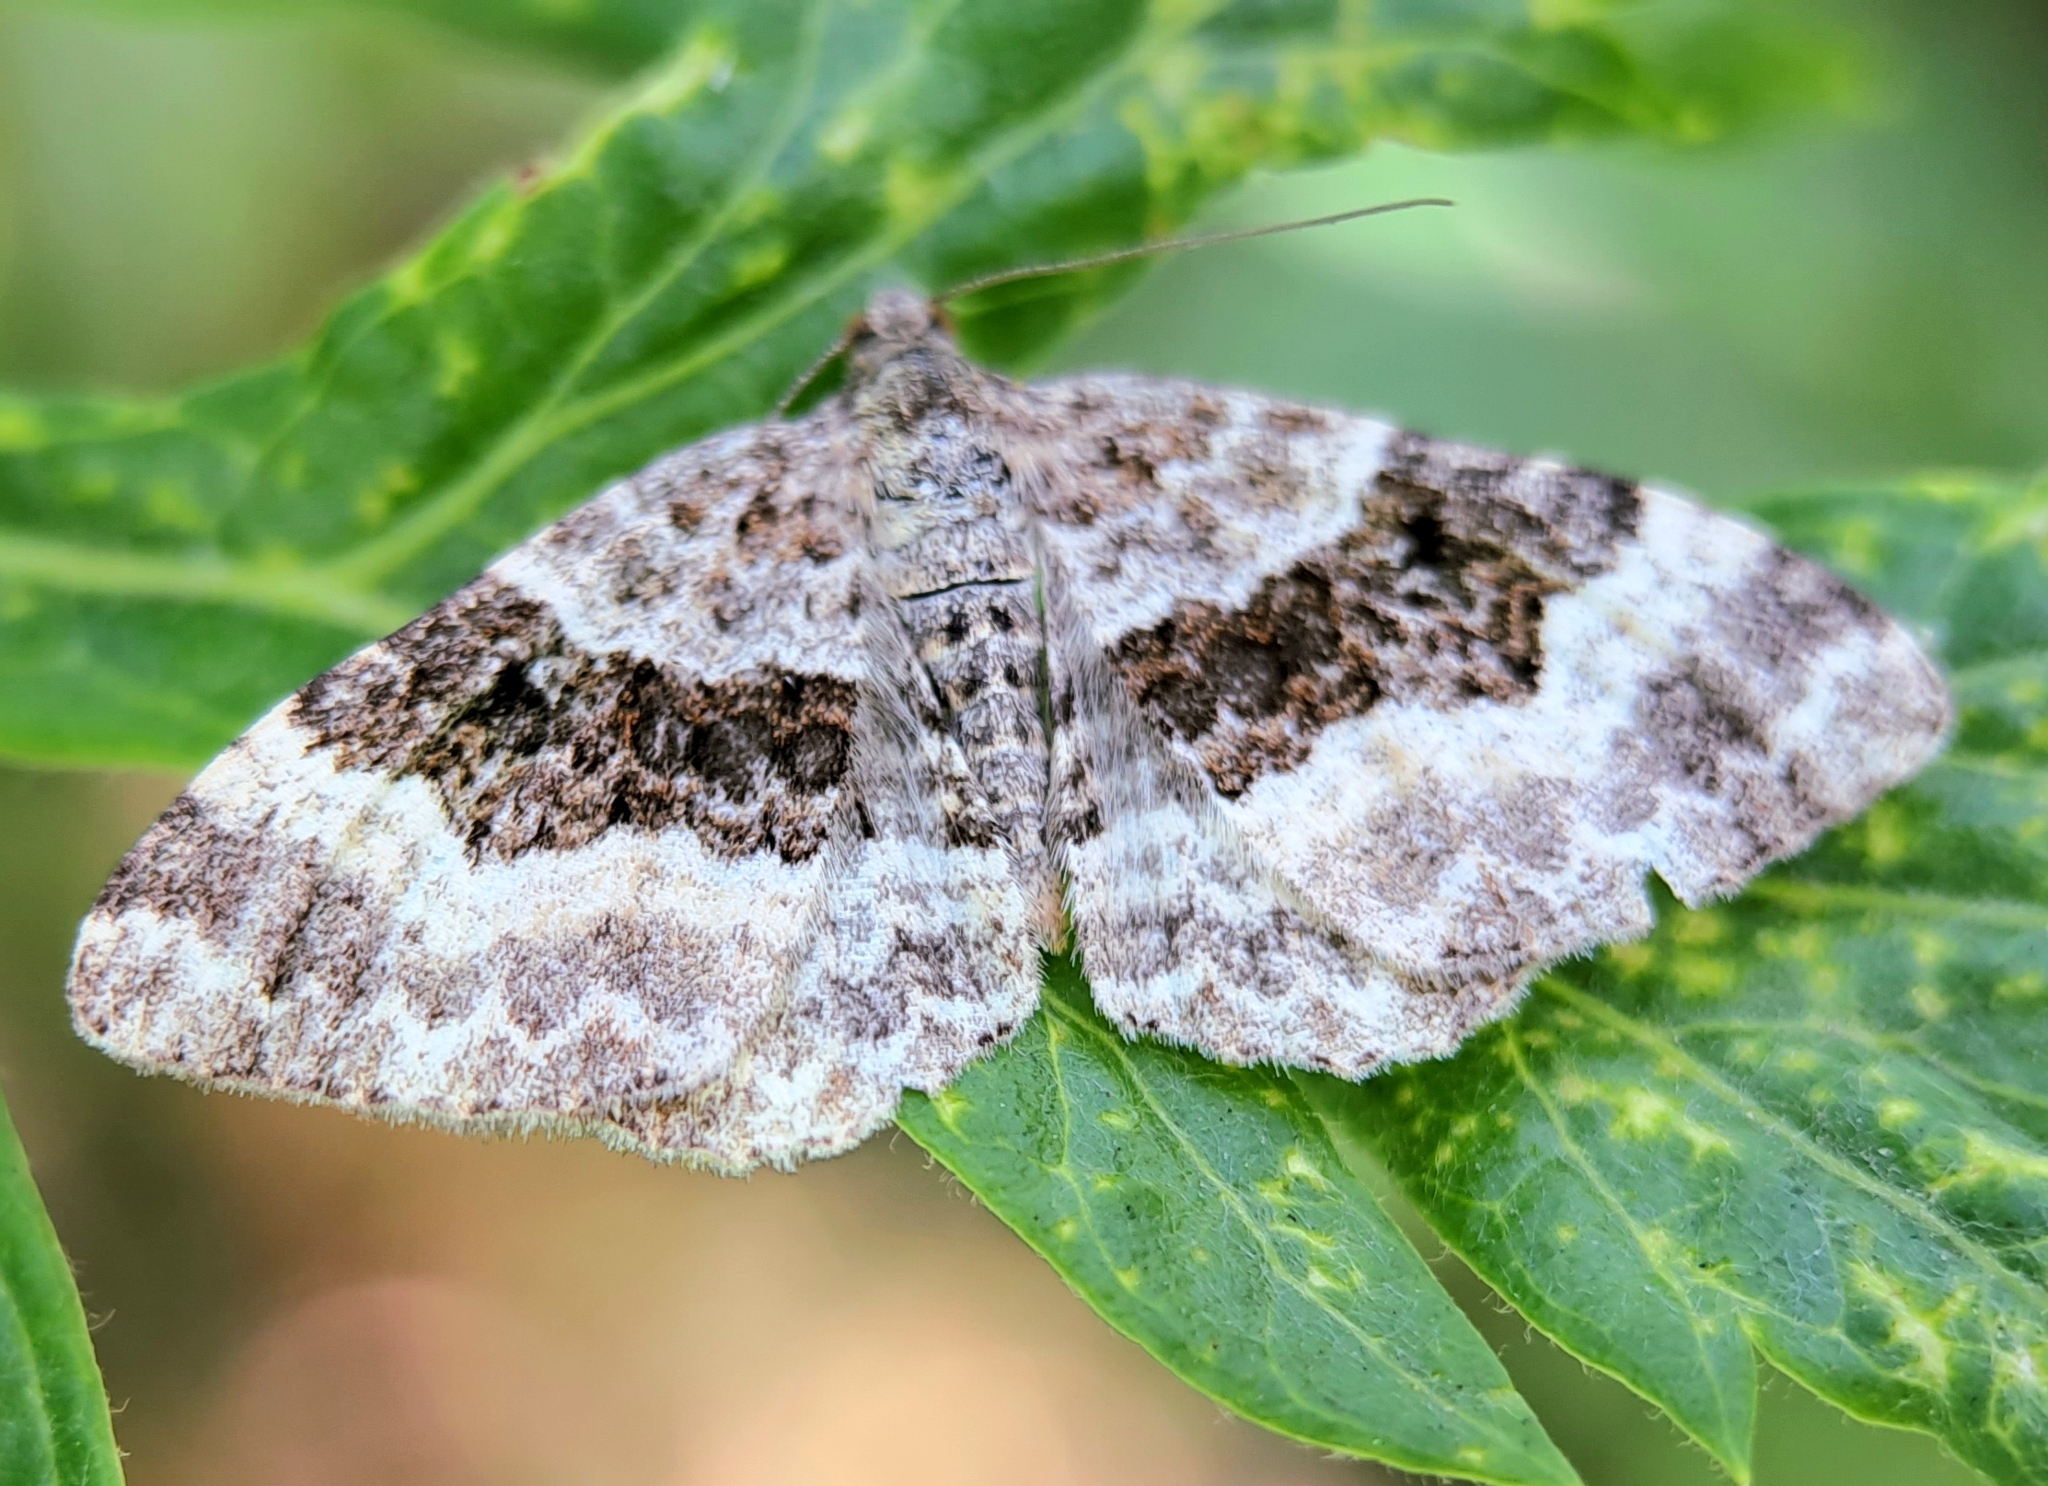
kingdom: Animalia
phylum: Arthropoda
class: Insecta
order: Lepidoptera
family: Geometridae
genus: Epirrhoe
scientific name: Epirrhoe alternata
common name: Common carpet
